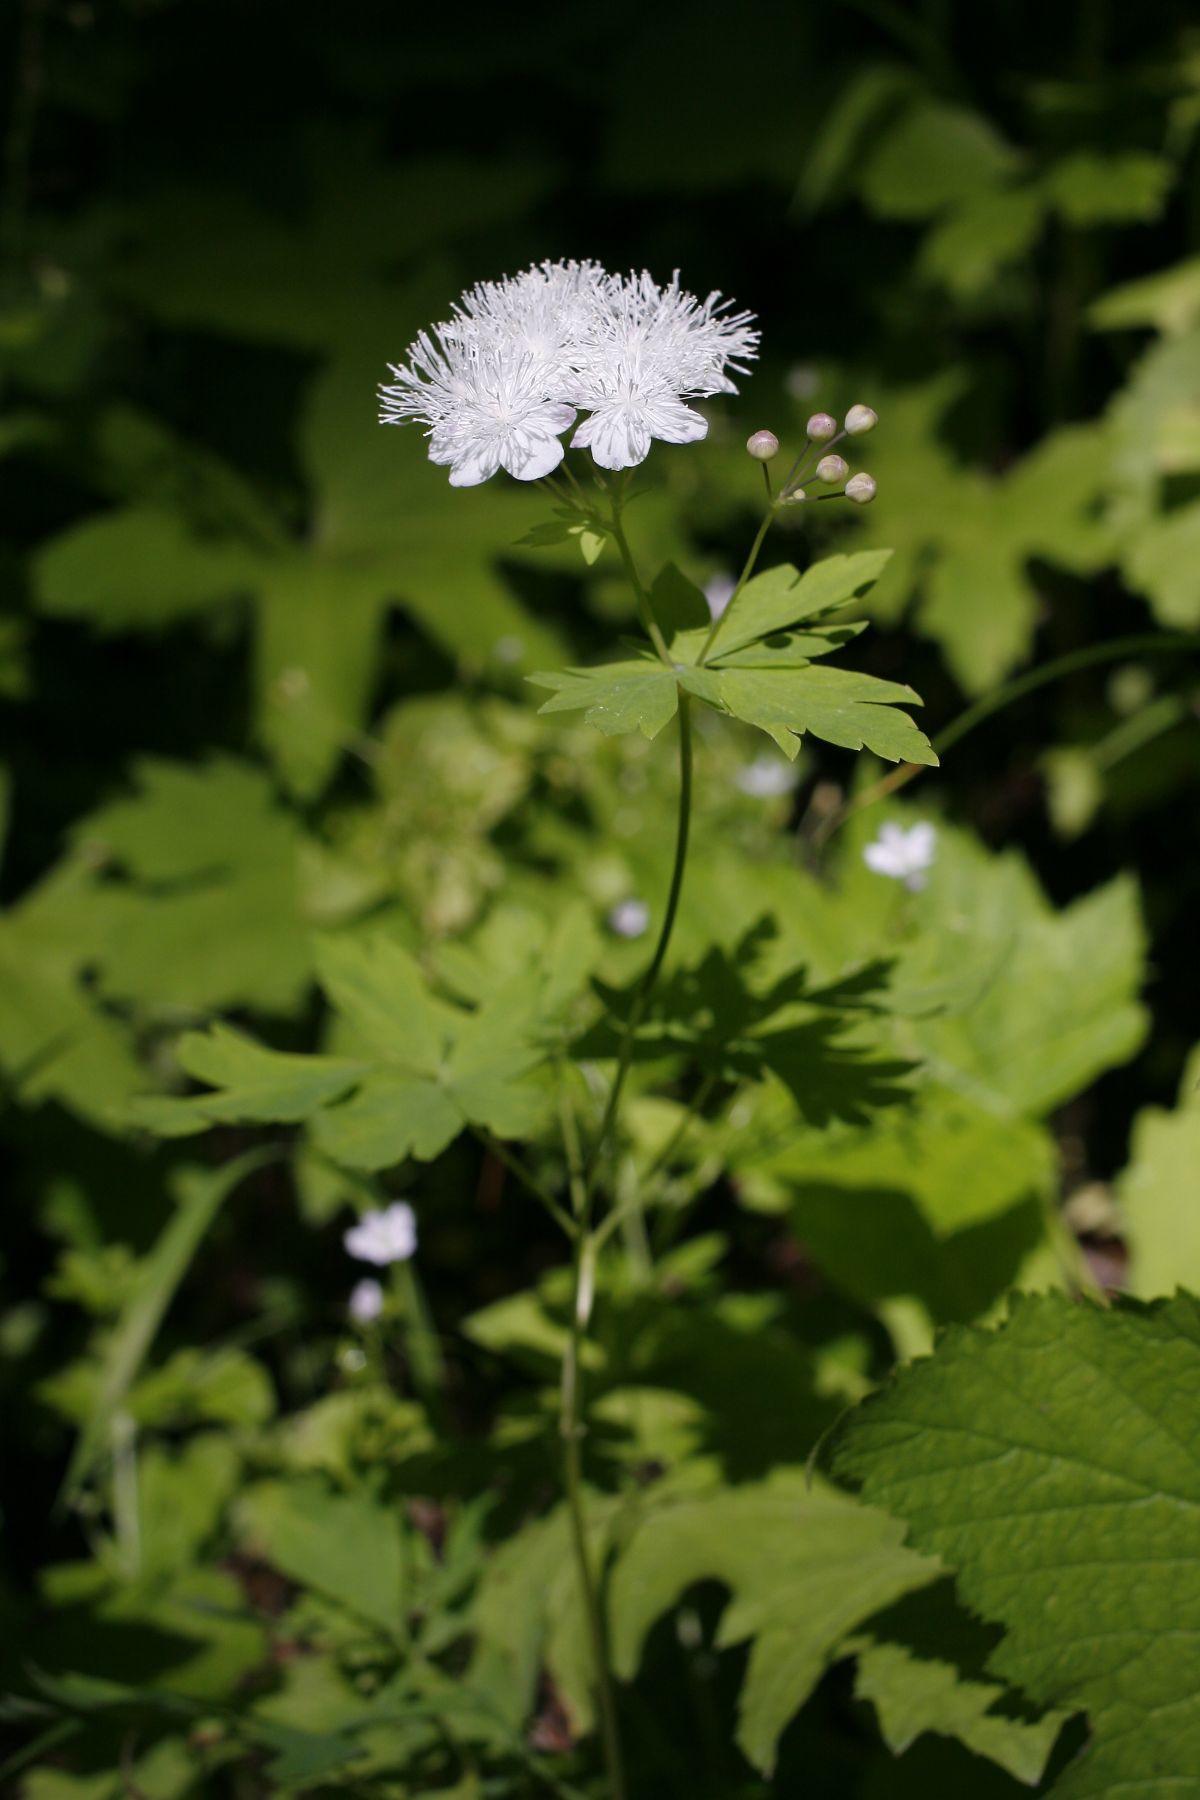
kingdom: Plantae
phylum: Tracheophyta
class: Magnoliopsida
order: Ranunculales
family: Ranunculaceae
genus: Enemion
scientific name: Enemion hallii
